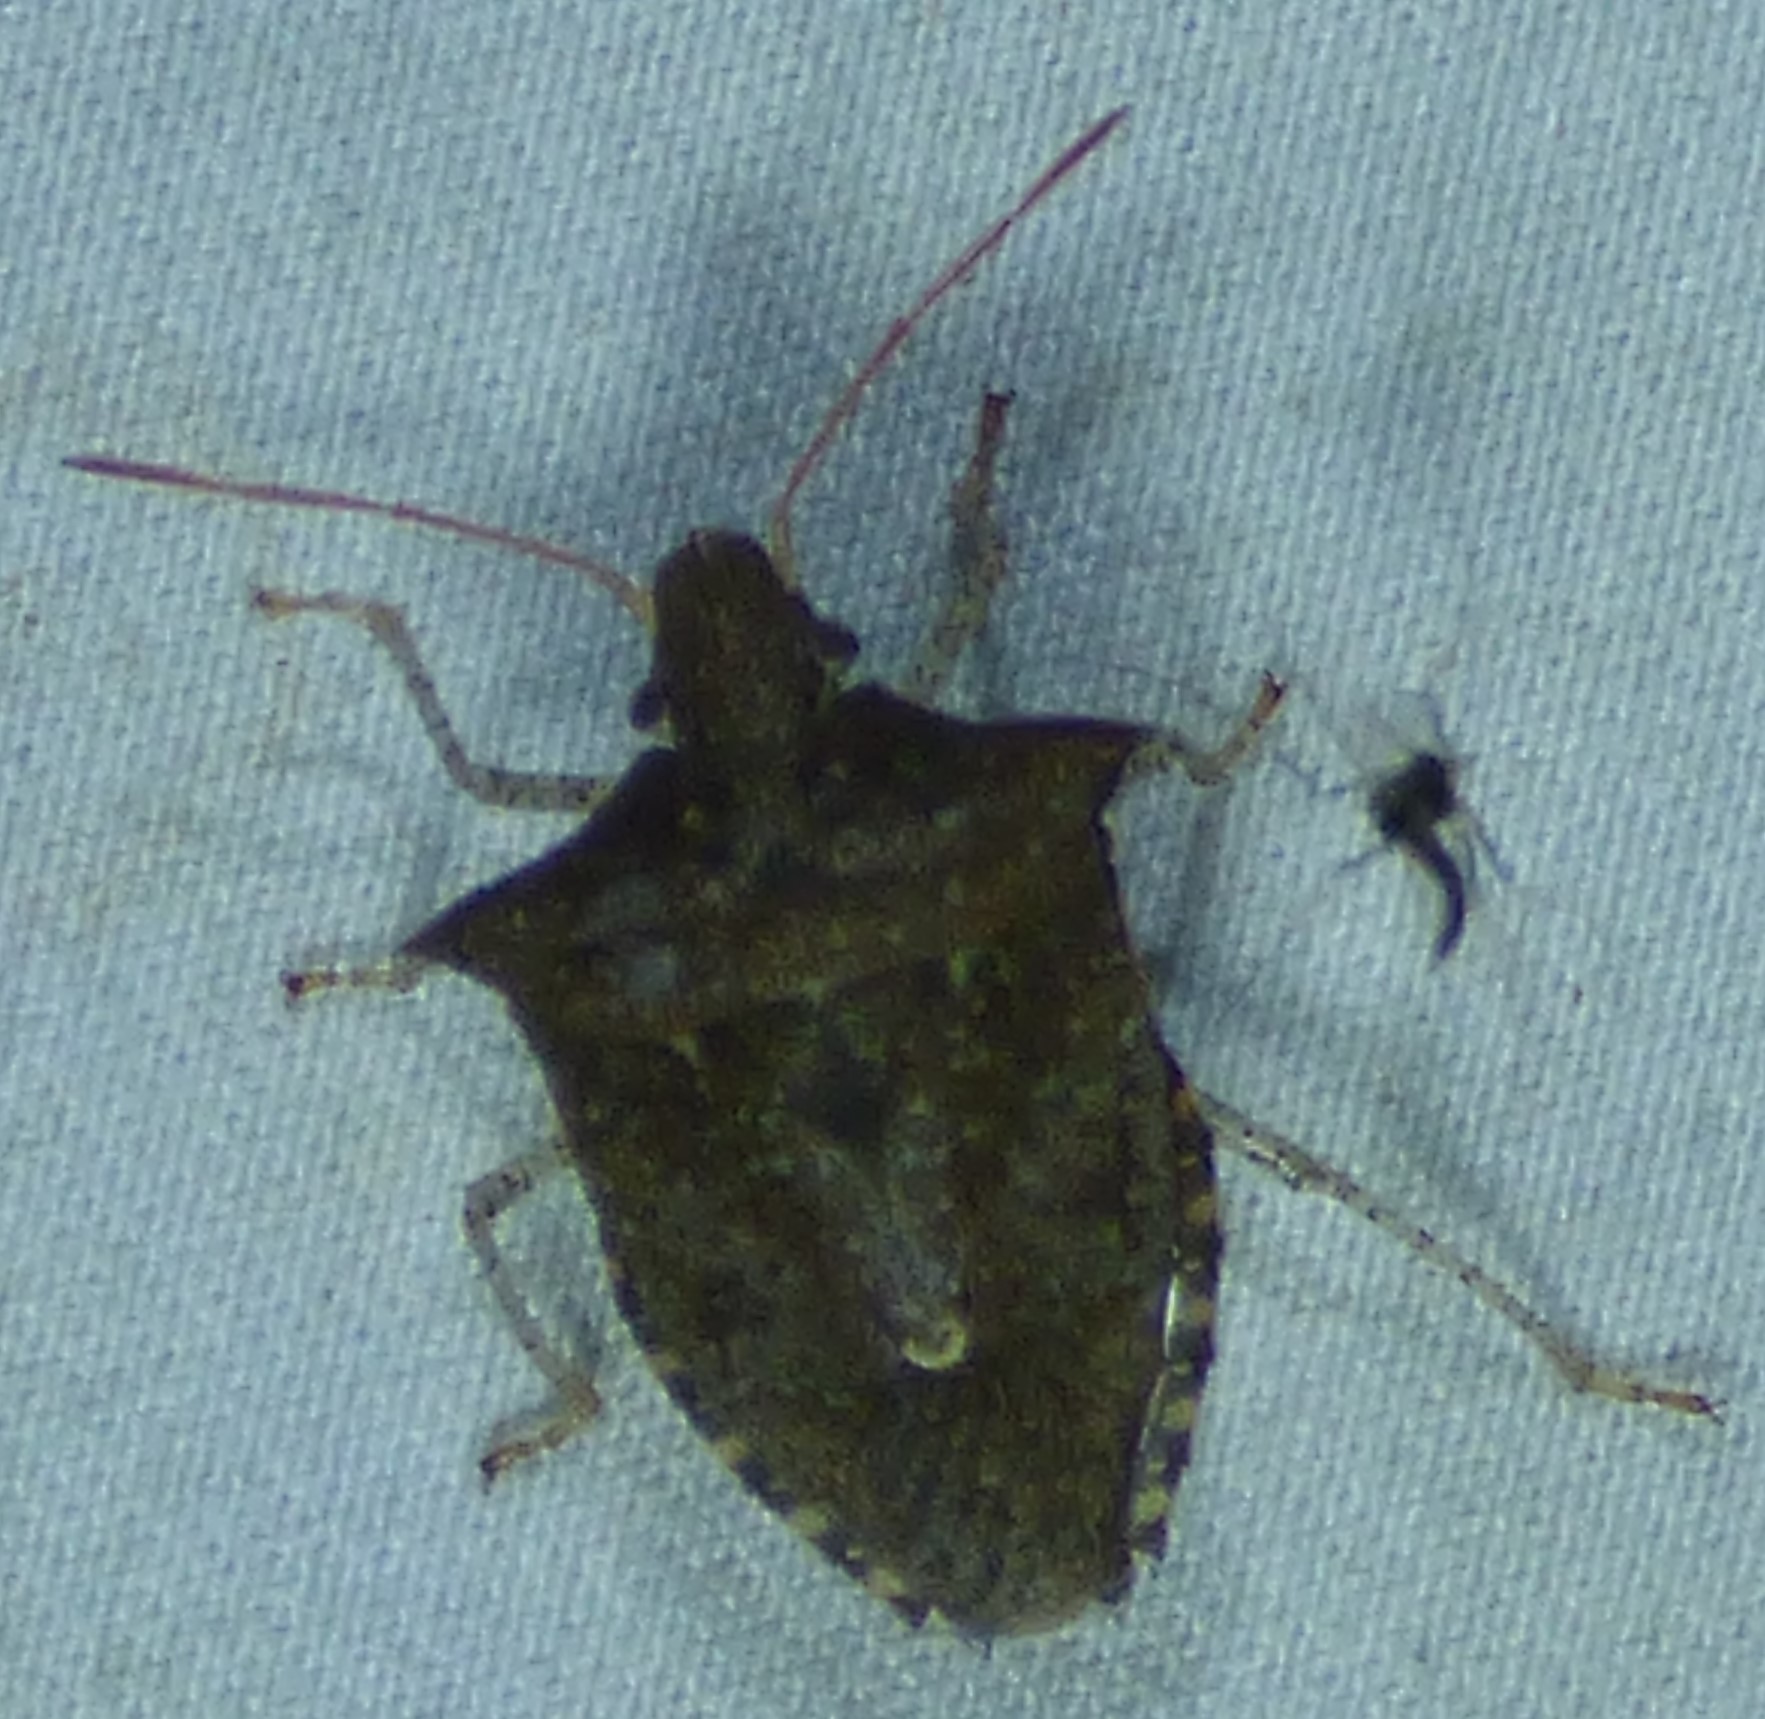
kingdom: Animalia
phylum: Arthropoda
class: Insecta
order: Hemiptera
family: Pentatomidae
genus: Euschistus
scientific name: Euschistus tristigmus
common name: Dusky stink bug
